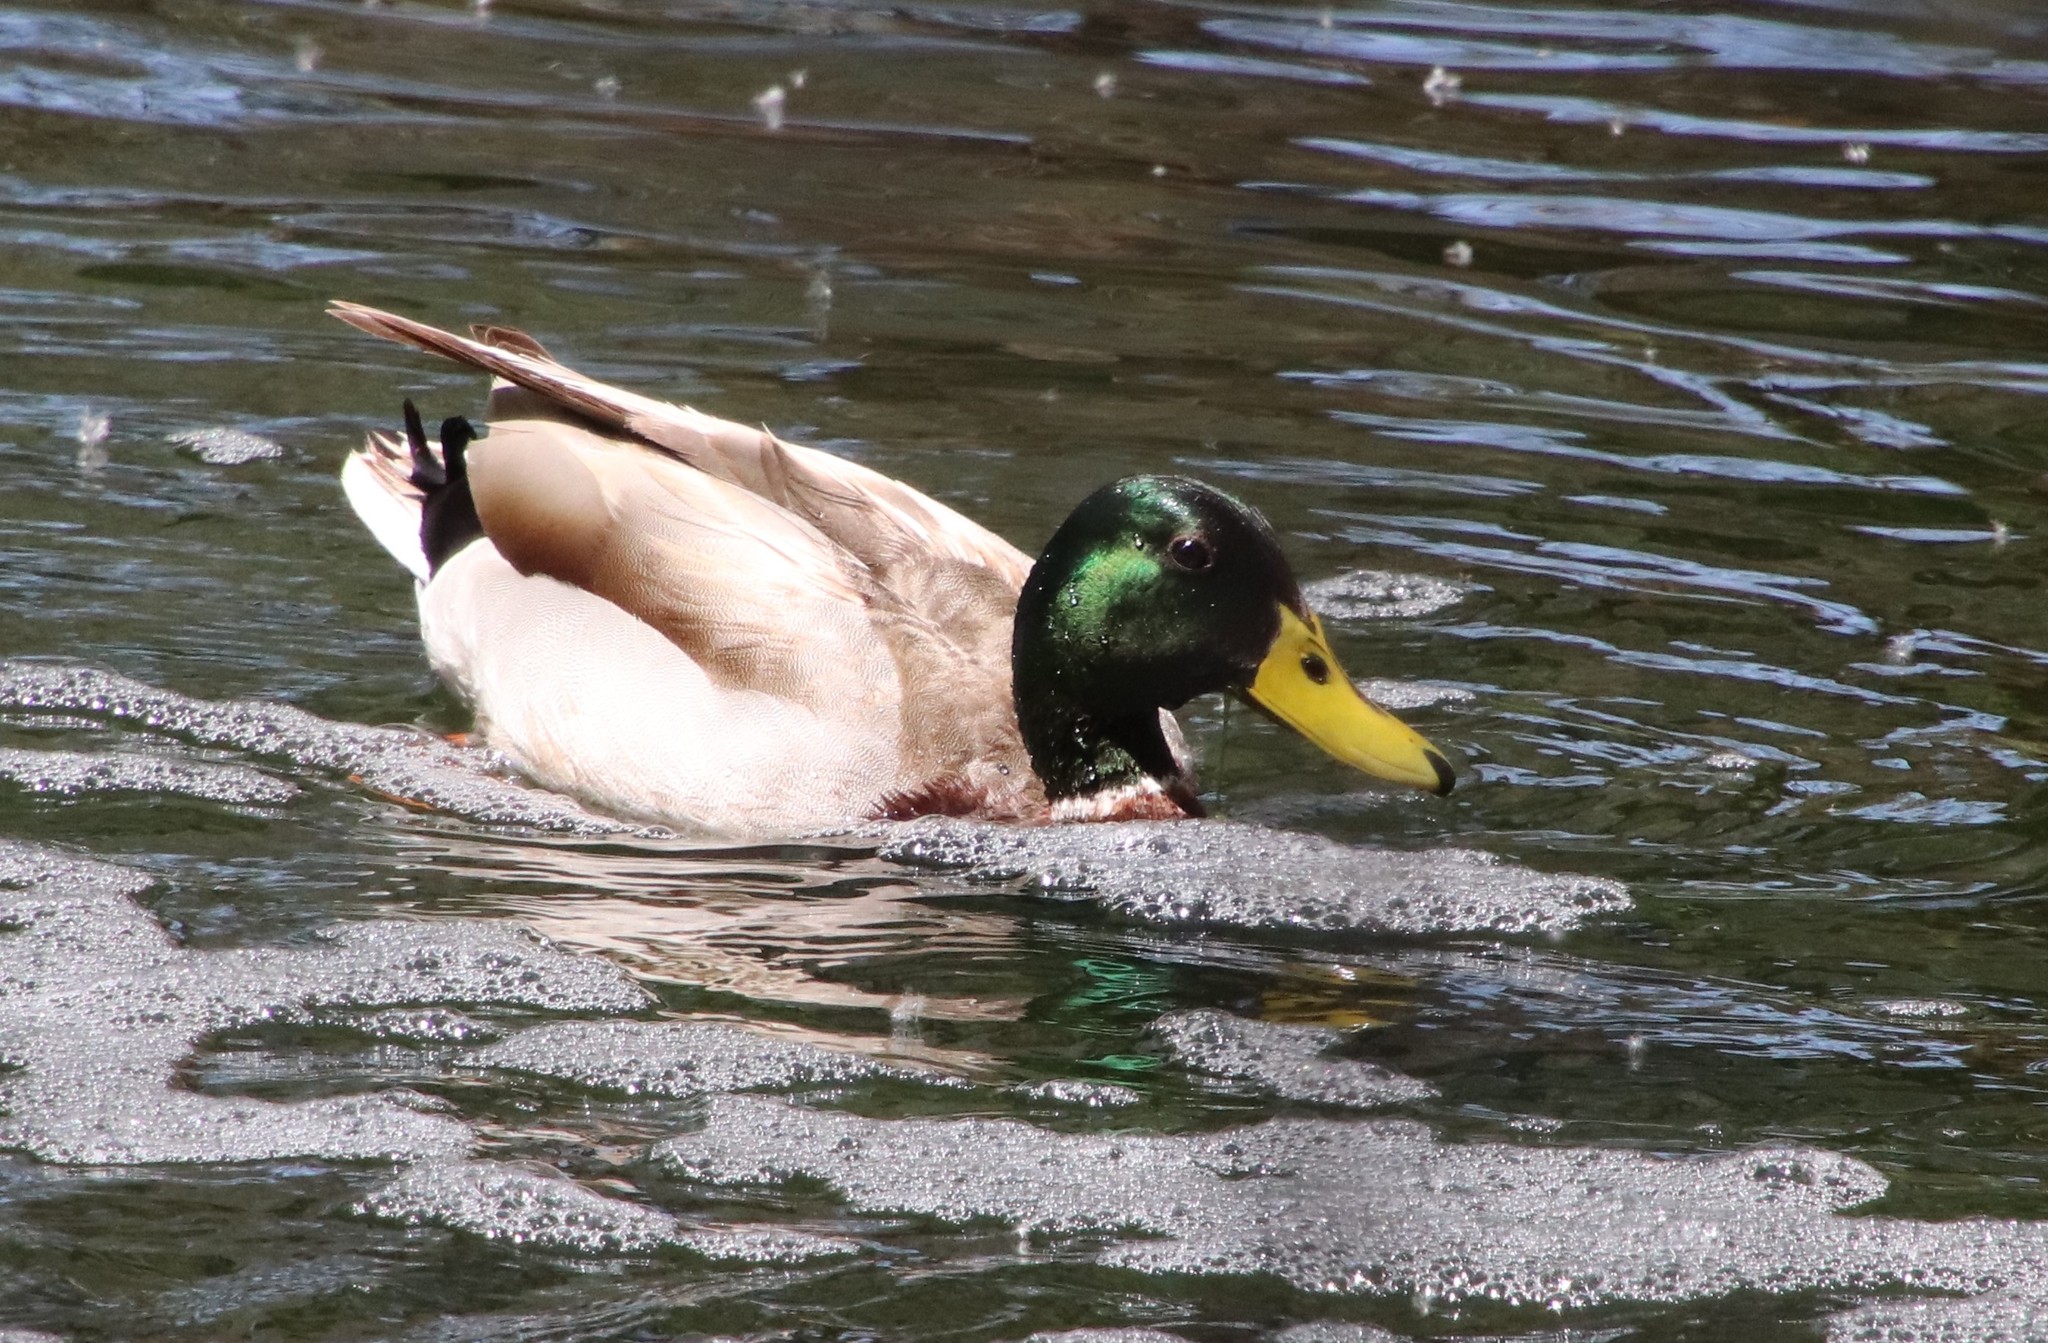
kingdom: Animalia
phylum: Chordata
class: Aves
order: Anseriformes
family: Anatidae
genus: Anas
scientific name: Anas platyrhynchos
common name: Mallard
